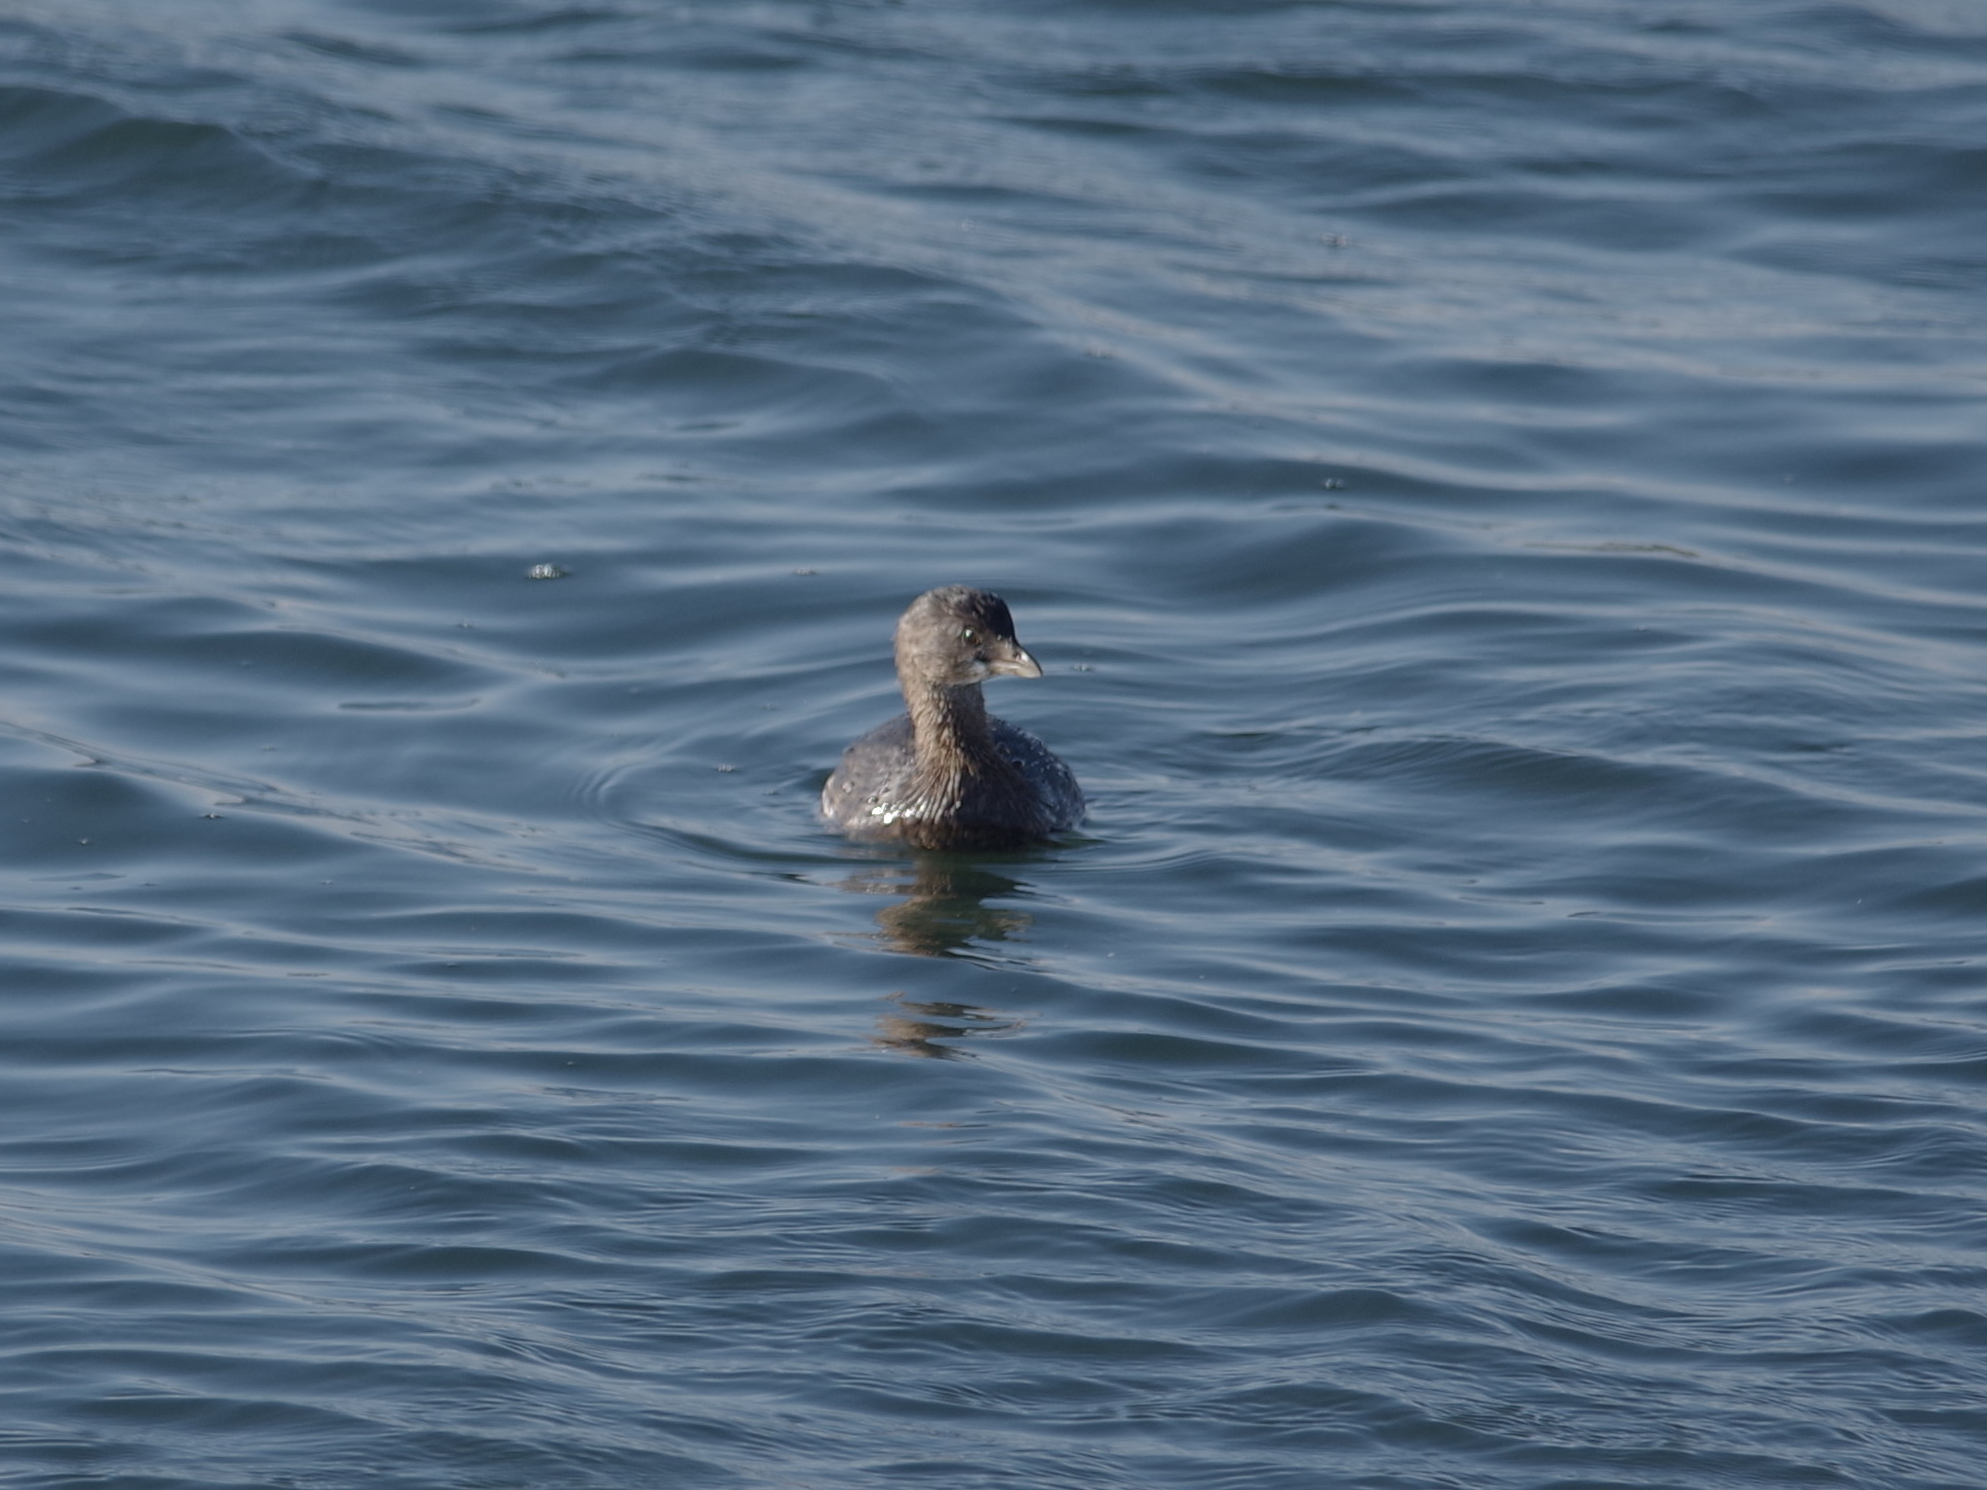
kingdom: Animalia
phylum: Chordata
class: Aves
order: Podicipediformes
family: Podicipedidae
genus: Podilymbus
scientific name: Podilymbus podiceps
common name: Pied-billed grebe
